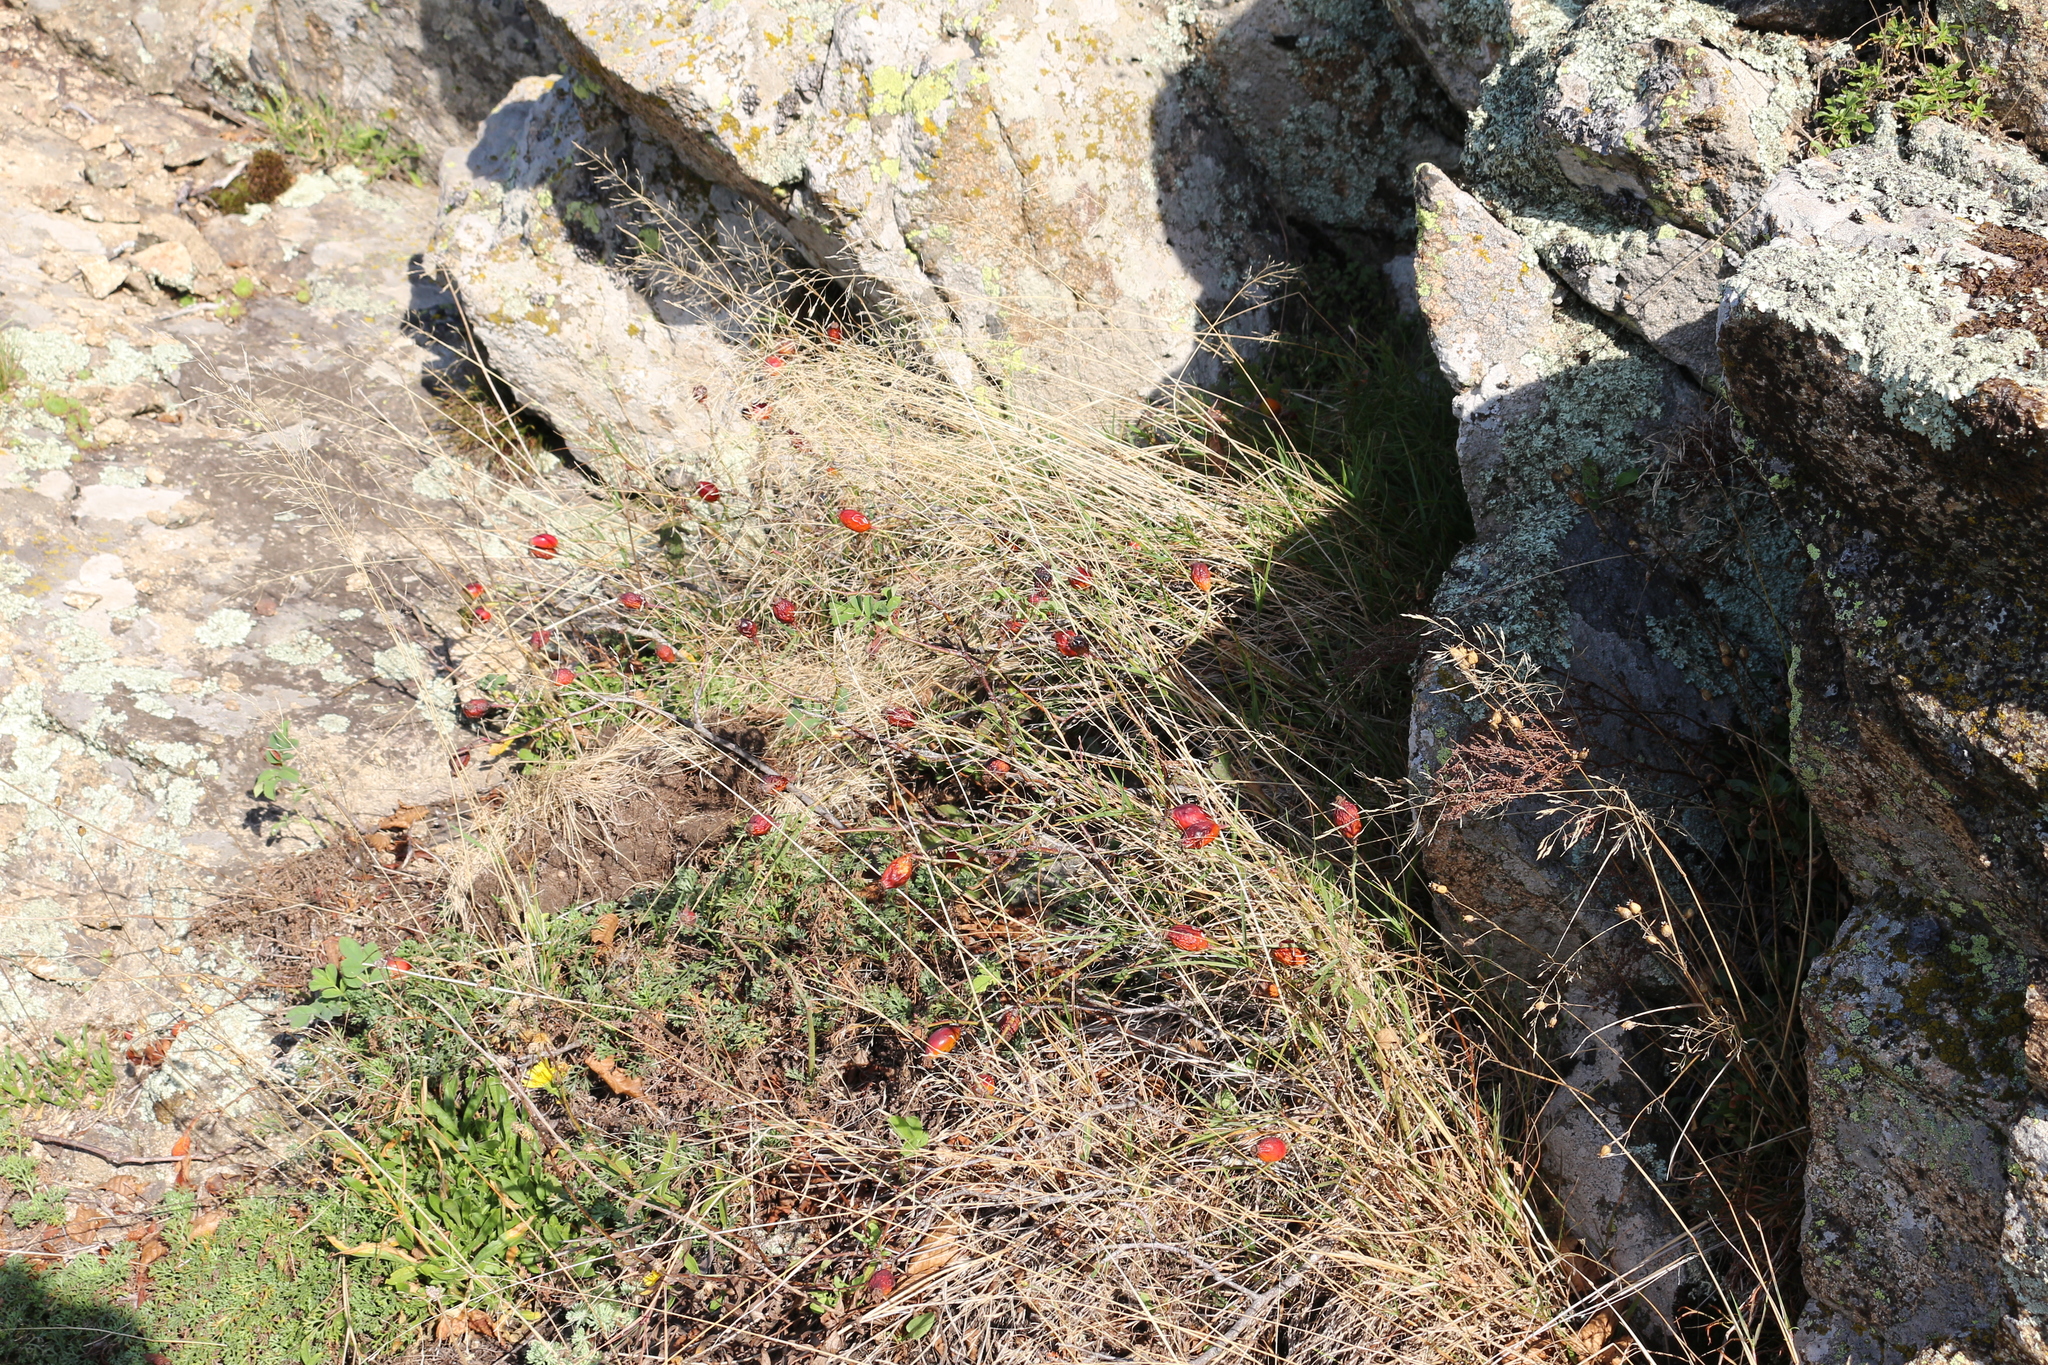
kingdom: Plantae
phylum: Tracheophyta
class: Magnoliopsida
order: Rosales
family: Rosaceae
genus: Rosa
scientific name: Rosa
